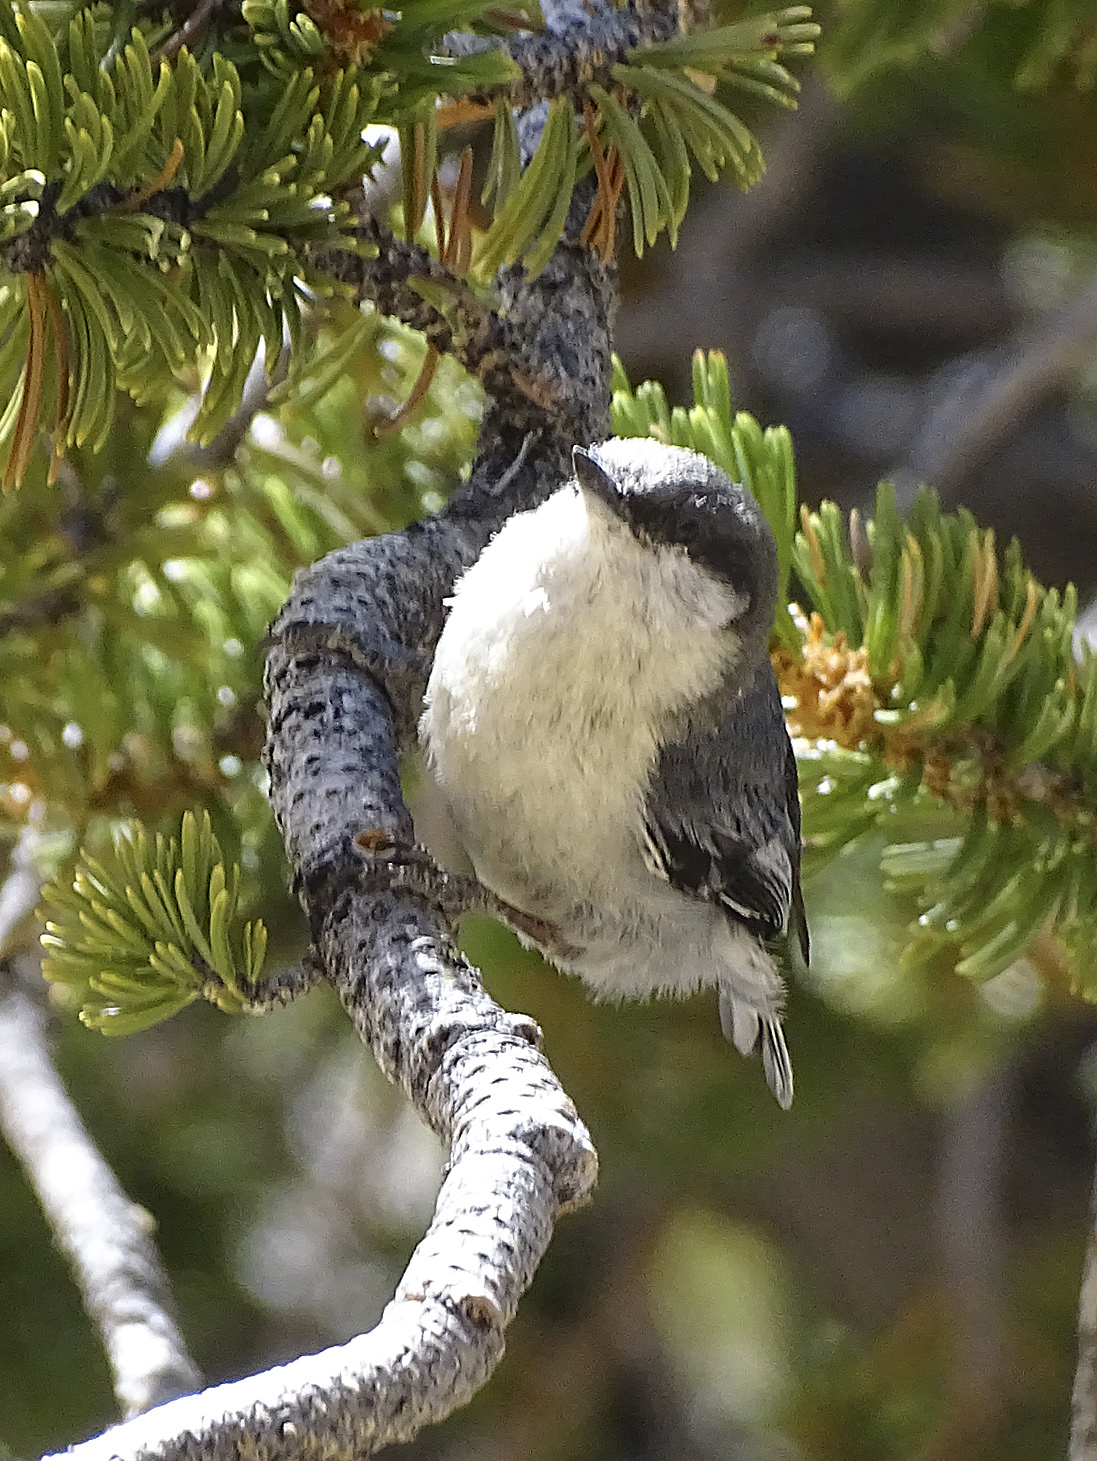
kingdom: Animalia
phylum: Chordata
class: Aves
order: Passeriformes
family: Sittidae
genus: Sitta
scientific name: Sitta pygmaea
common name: Pygmy nuthatch
